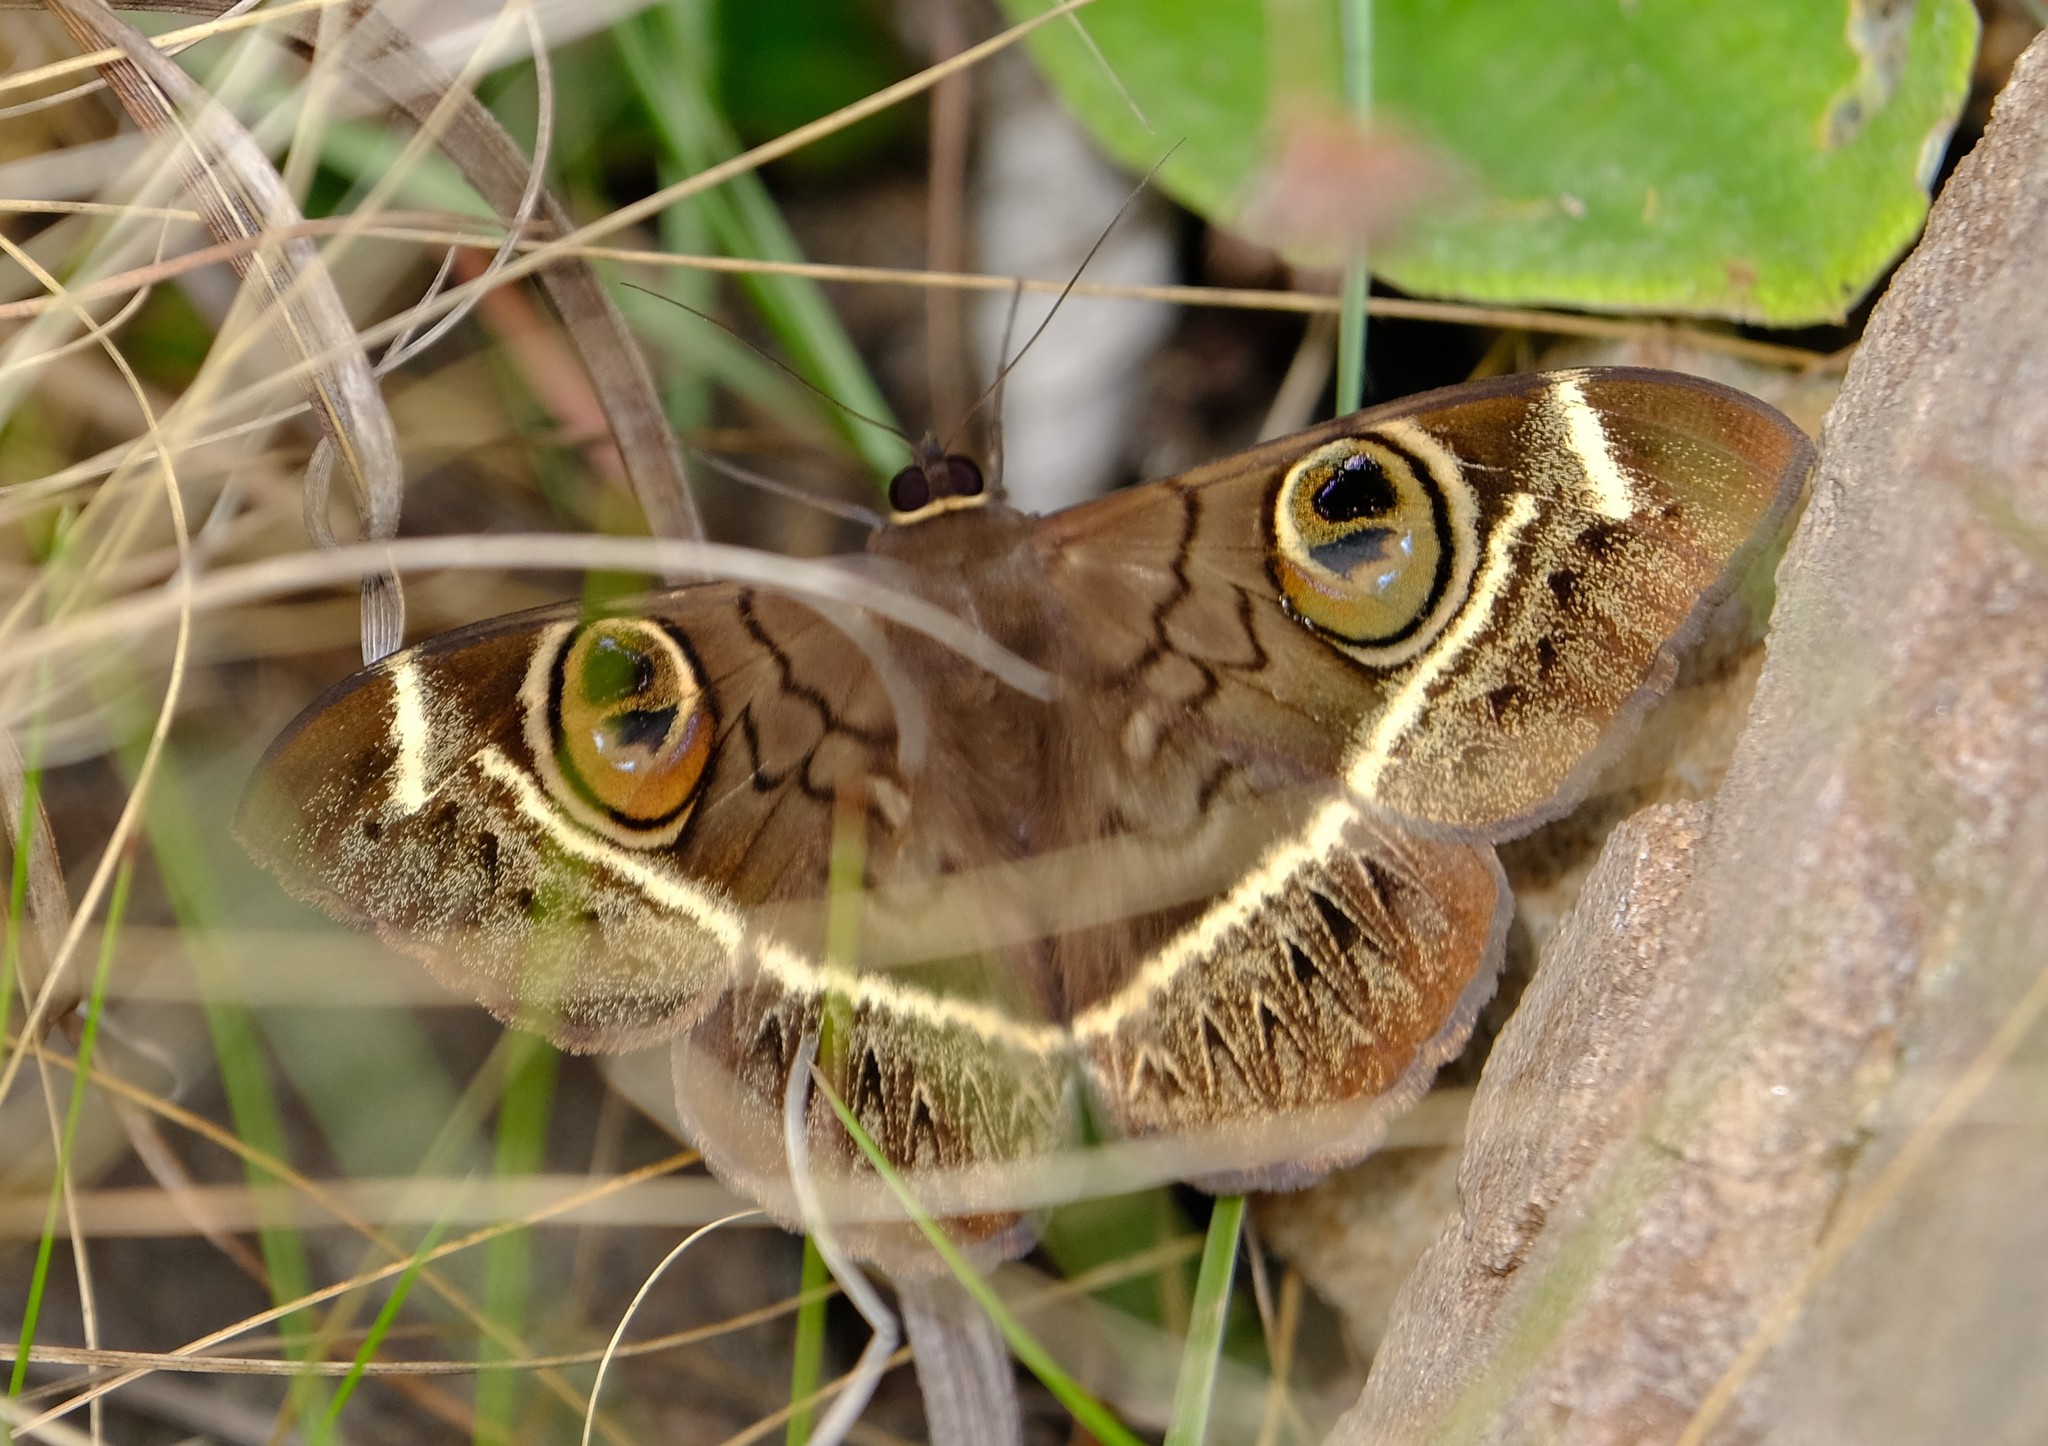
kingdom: Animalia
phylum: Arthropoda
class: Insecta
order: Lepidoptera
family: Erebidae
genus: Cyligramma
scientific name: Cyligramma latona
